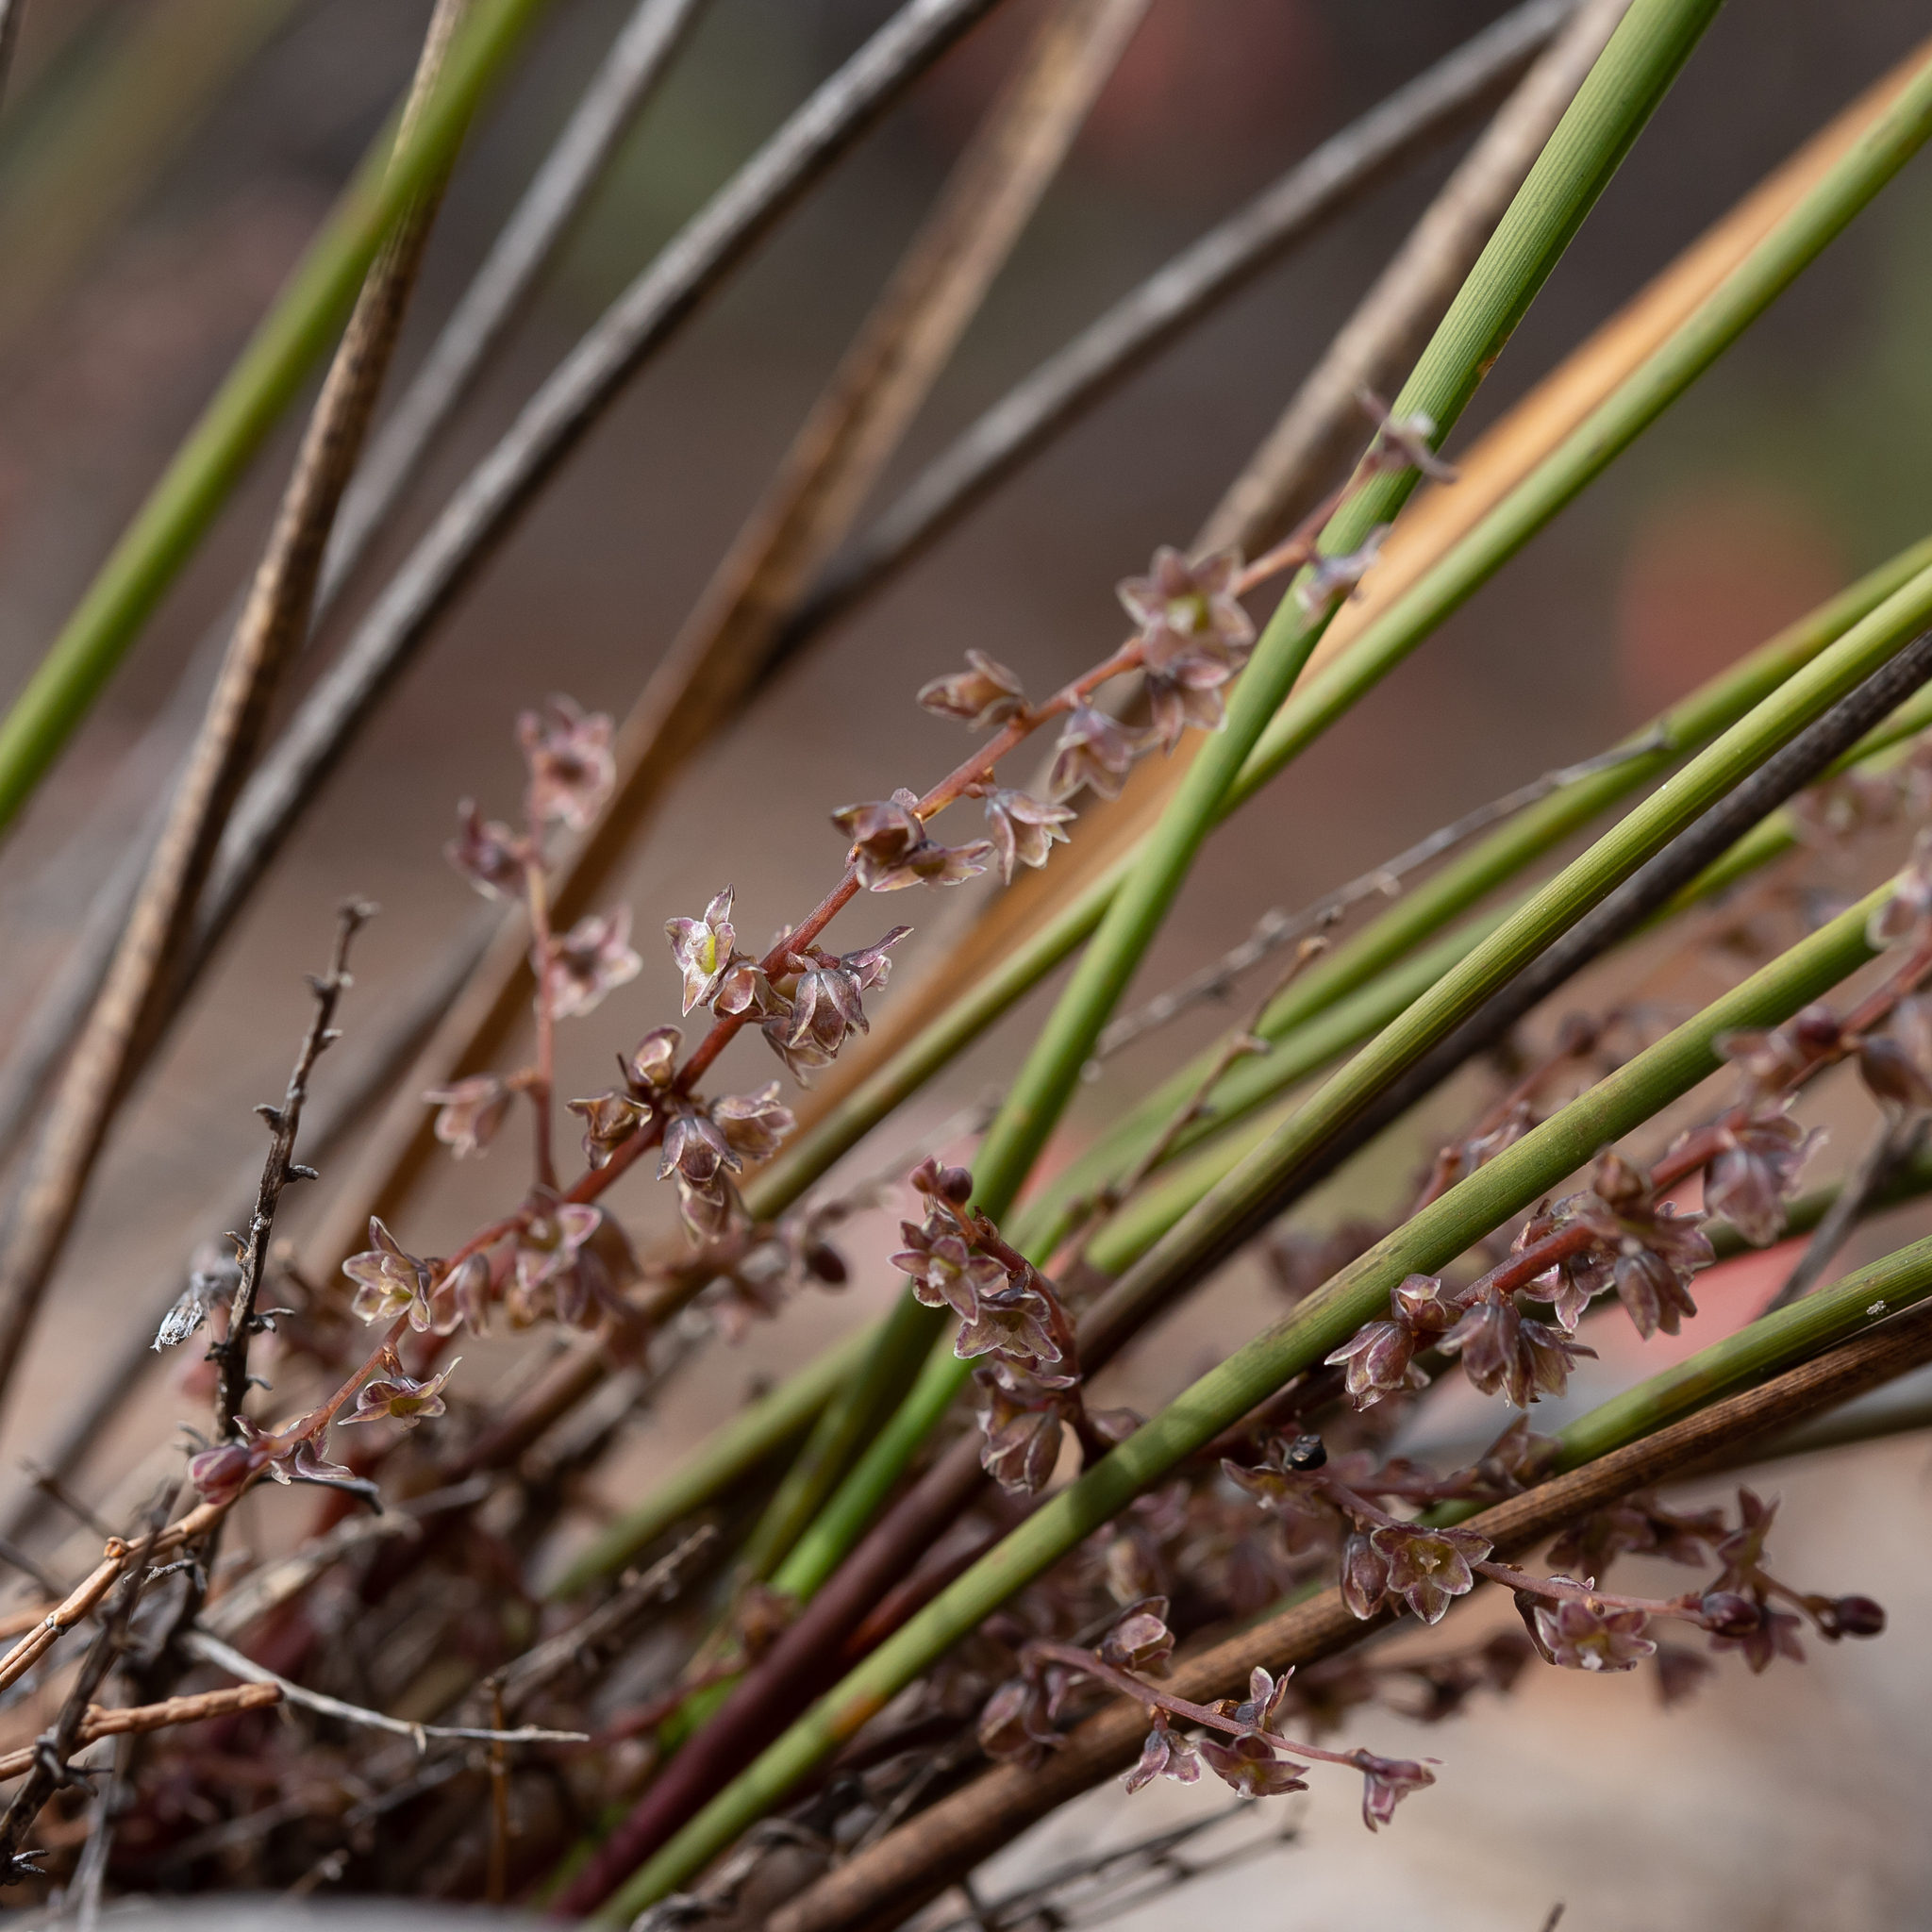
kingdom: Plantae
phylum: Tracheophyta
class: Liliopsida
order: Asparagales
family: Asparagaceae
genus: Lomandra
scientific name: Lomandra micrantha
